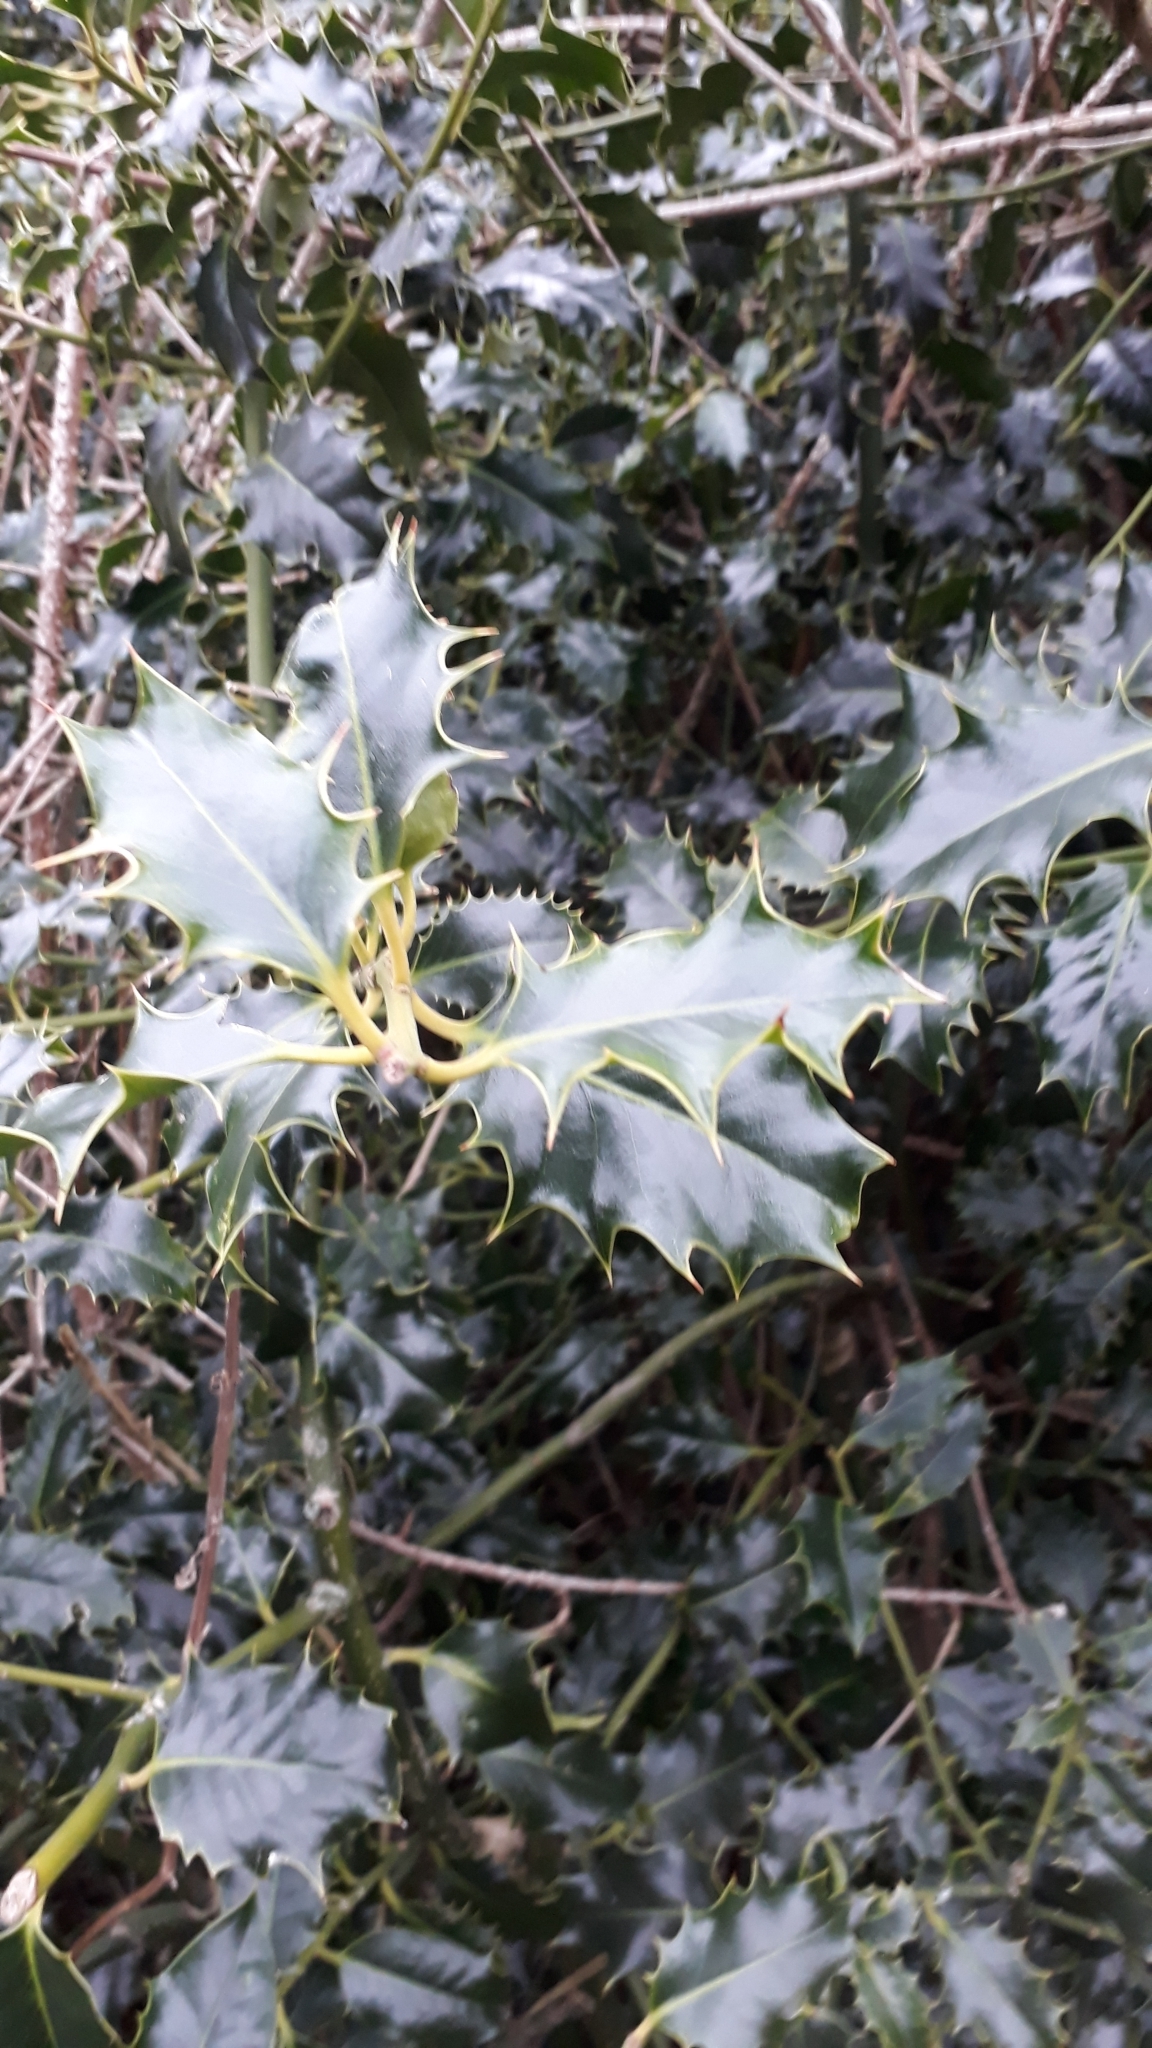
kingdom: Plantae
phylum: Tracheophyta
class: Magnoliopsida
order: Aquifoliales
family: Aquifoliaceae
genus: Ilex
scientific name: Ilex aquifolium
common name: English holly
